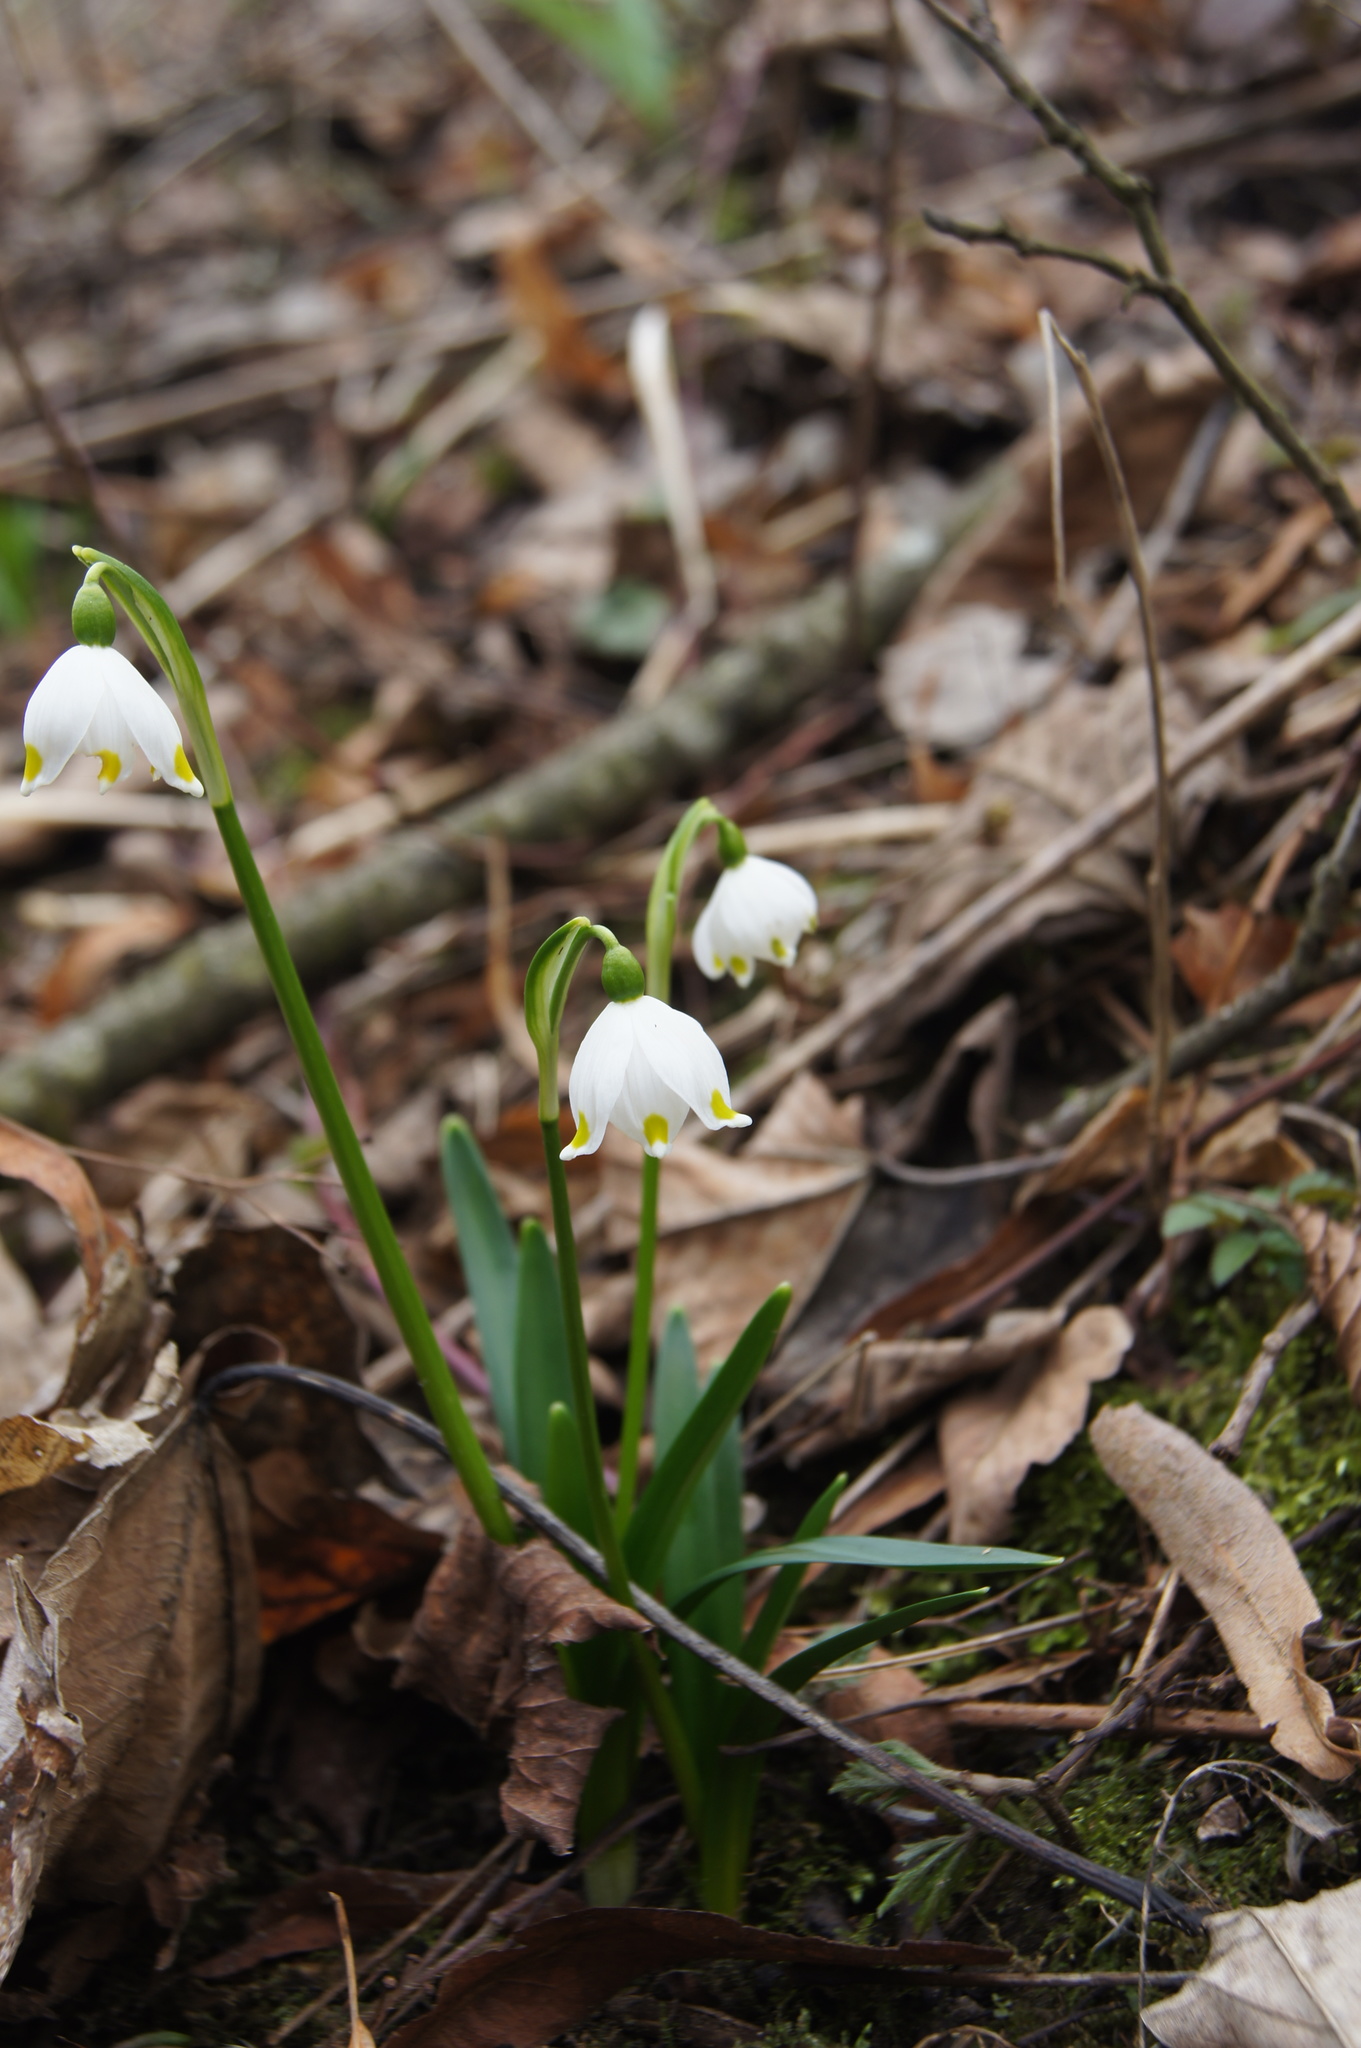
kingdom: Plantae
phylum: Tracheophyta
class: Liliopsida
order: Asparagales
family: Amaryllidaceae
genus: Leucojum
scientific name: Leucojum vernum
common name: Spring snowflake
